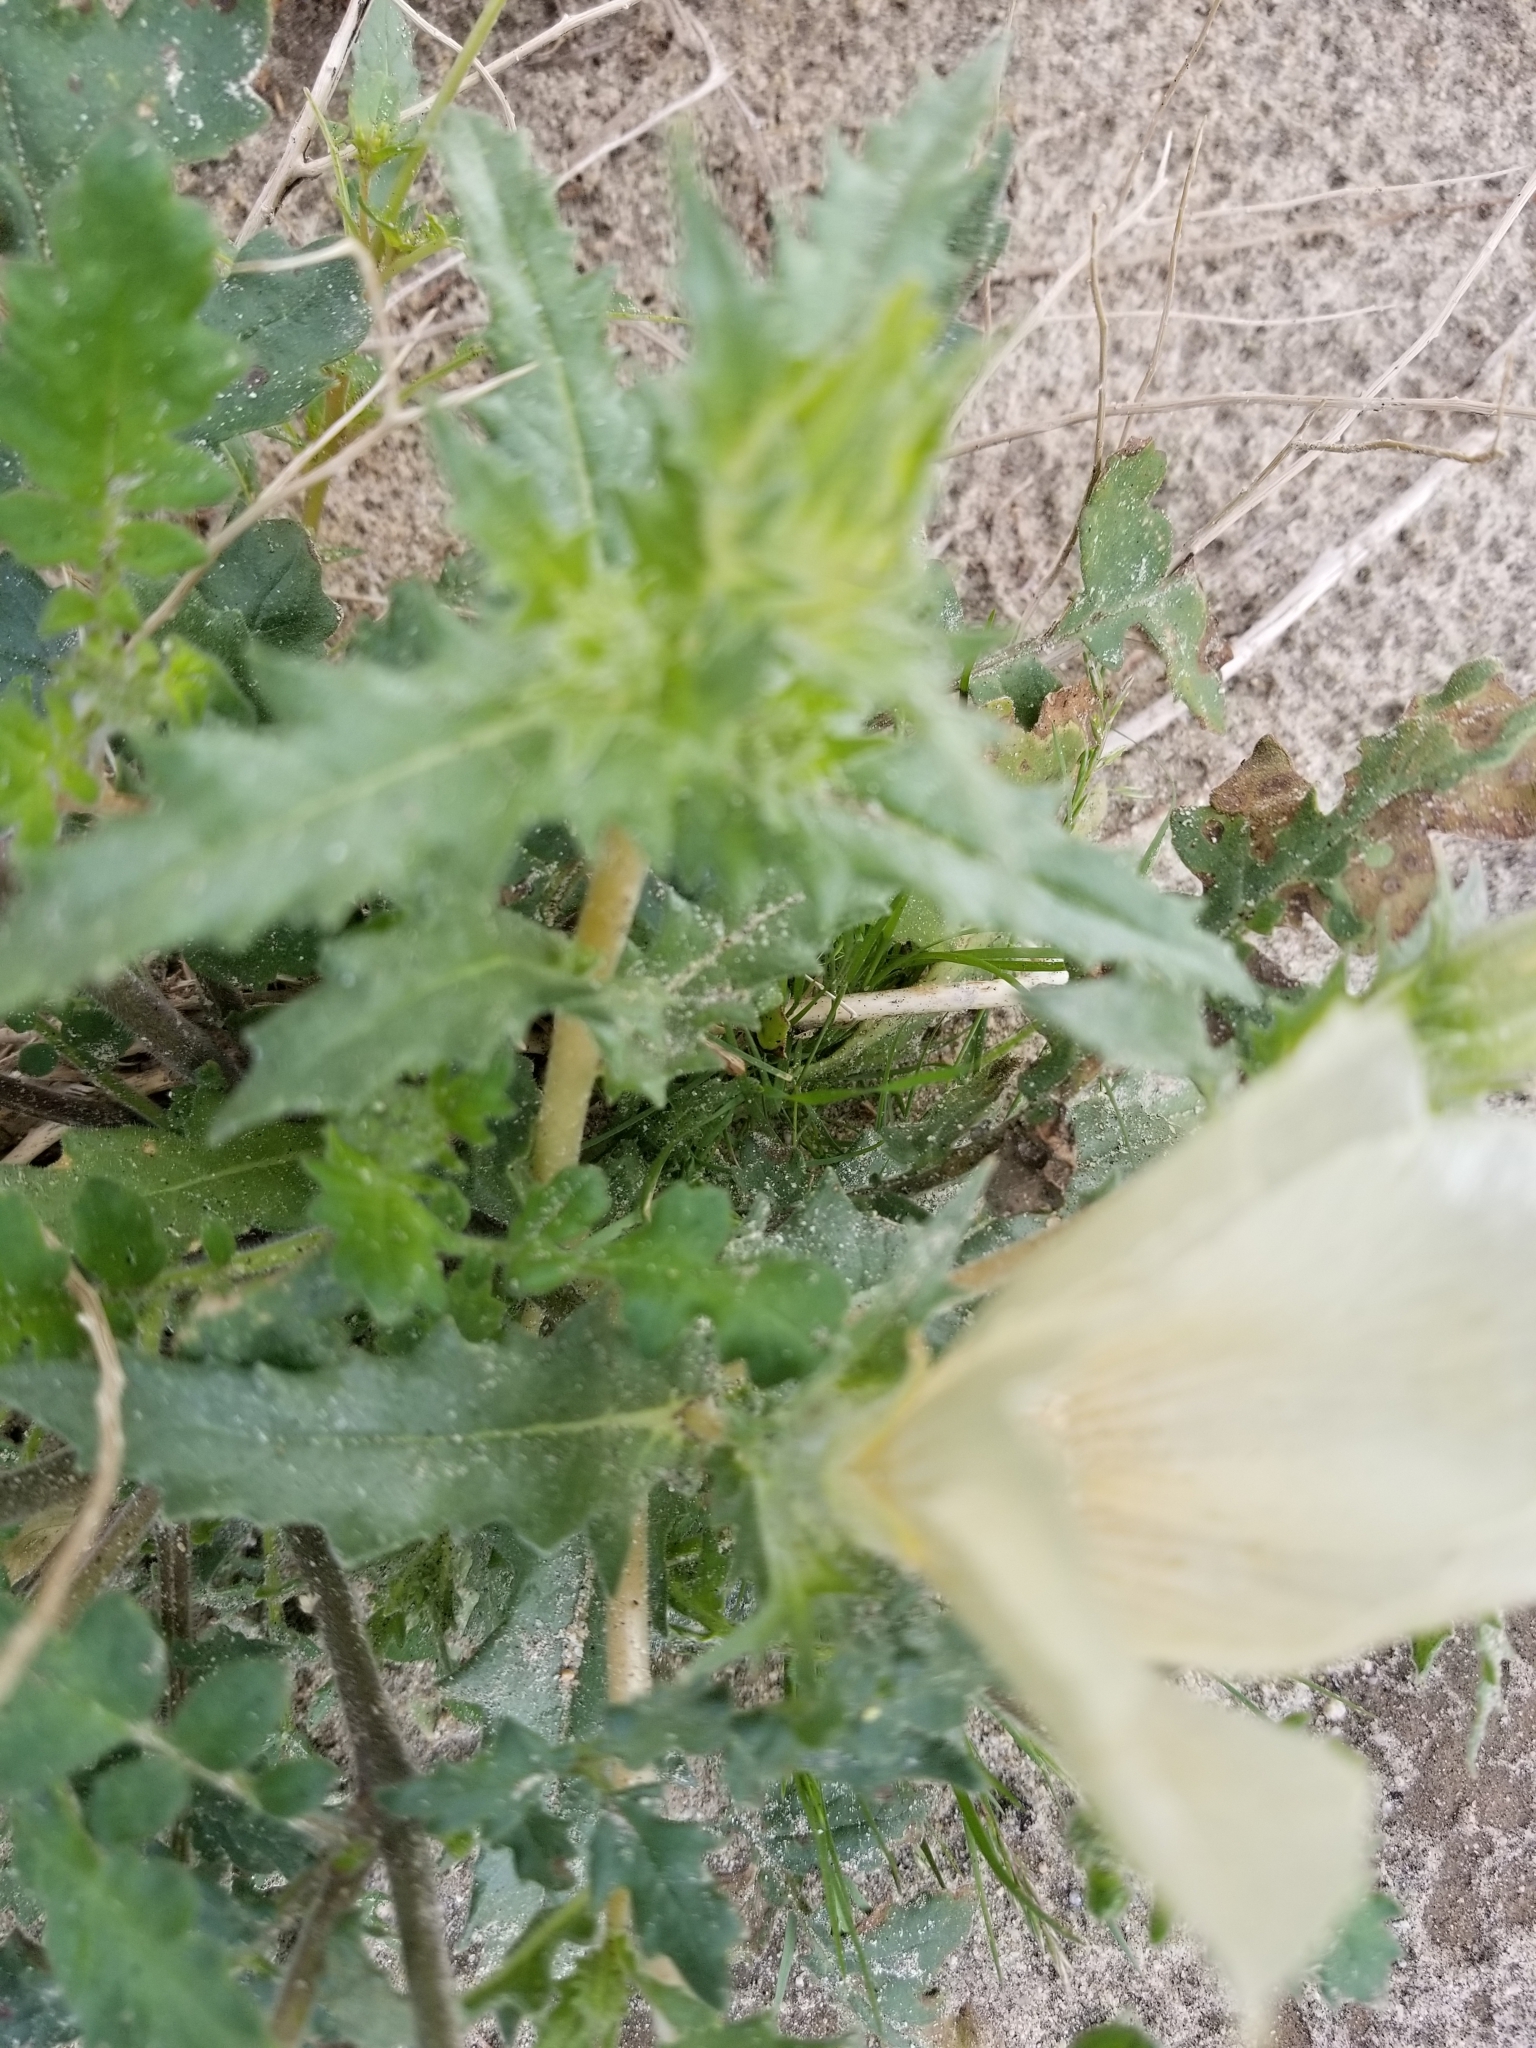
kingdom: Plantae
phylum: Tracheophyta
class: Magnoliopsida
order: Cornales
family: Loasaceae
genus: Mentzelia
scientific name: Mentzelia involucrata
